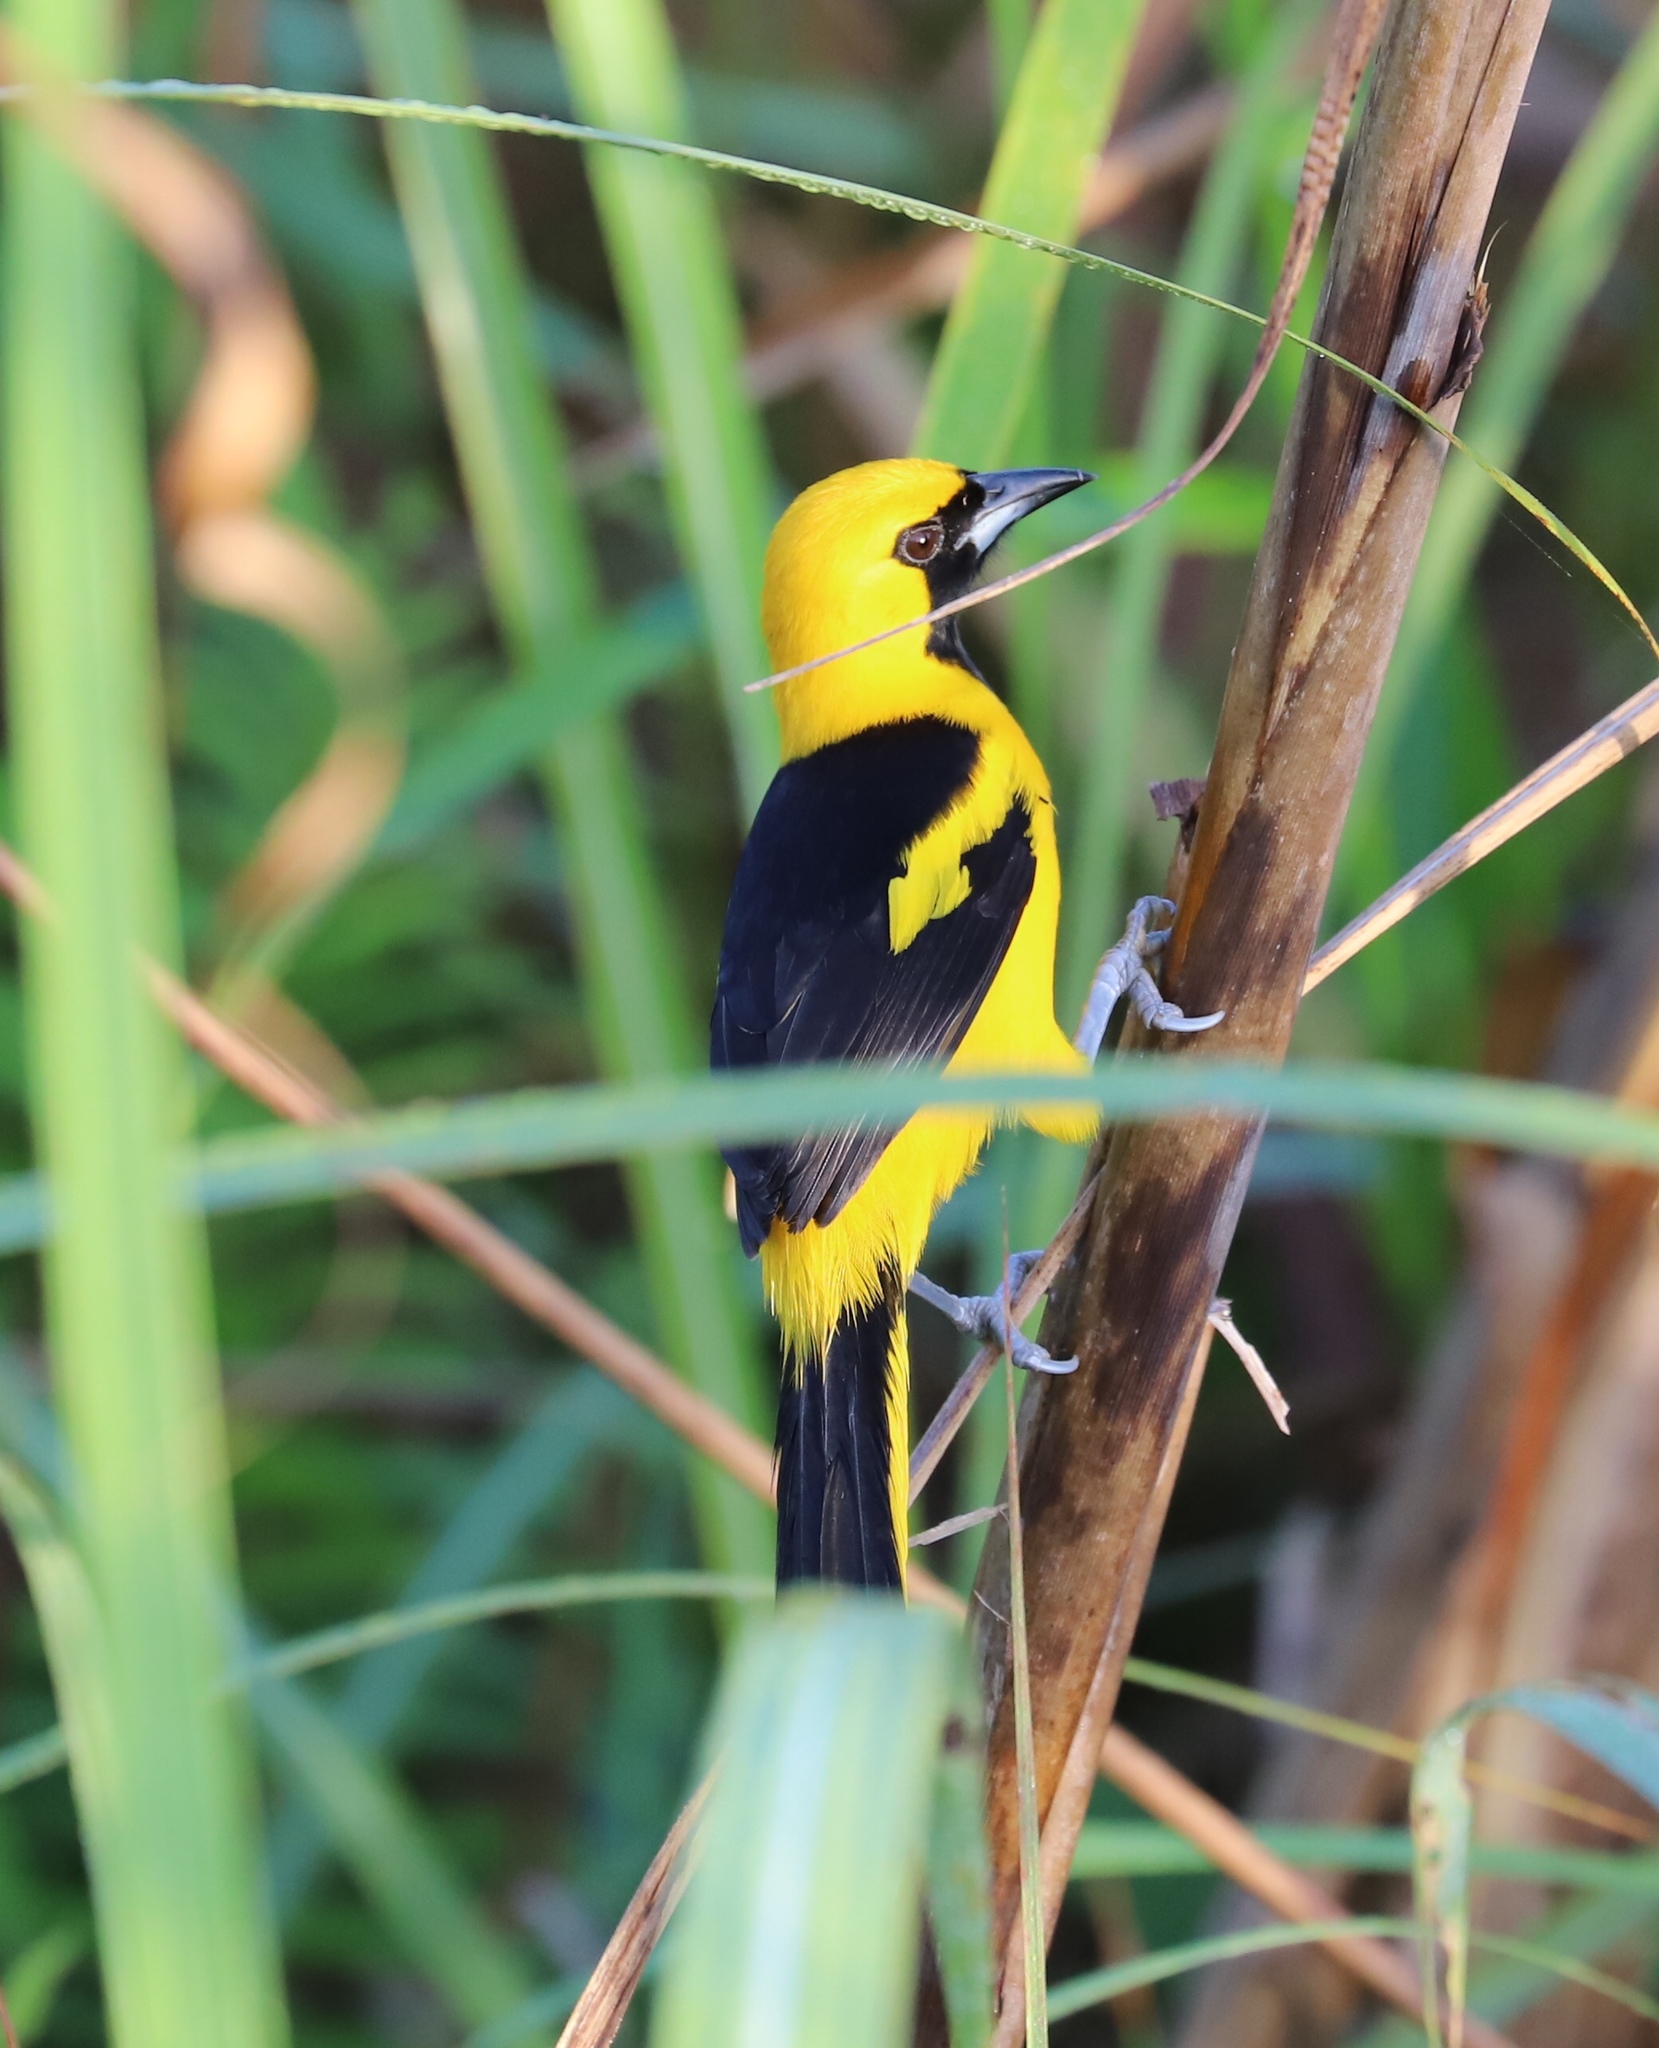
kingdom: Animalia
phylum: Chordata
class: Aves
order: Passeriformes
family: Icteridae
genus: Icterus
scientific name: Icterus mesomelas
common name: Yellow-tailed oriole
